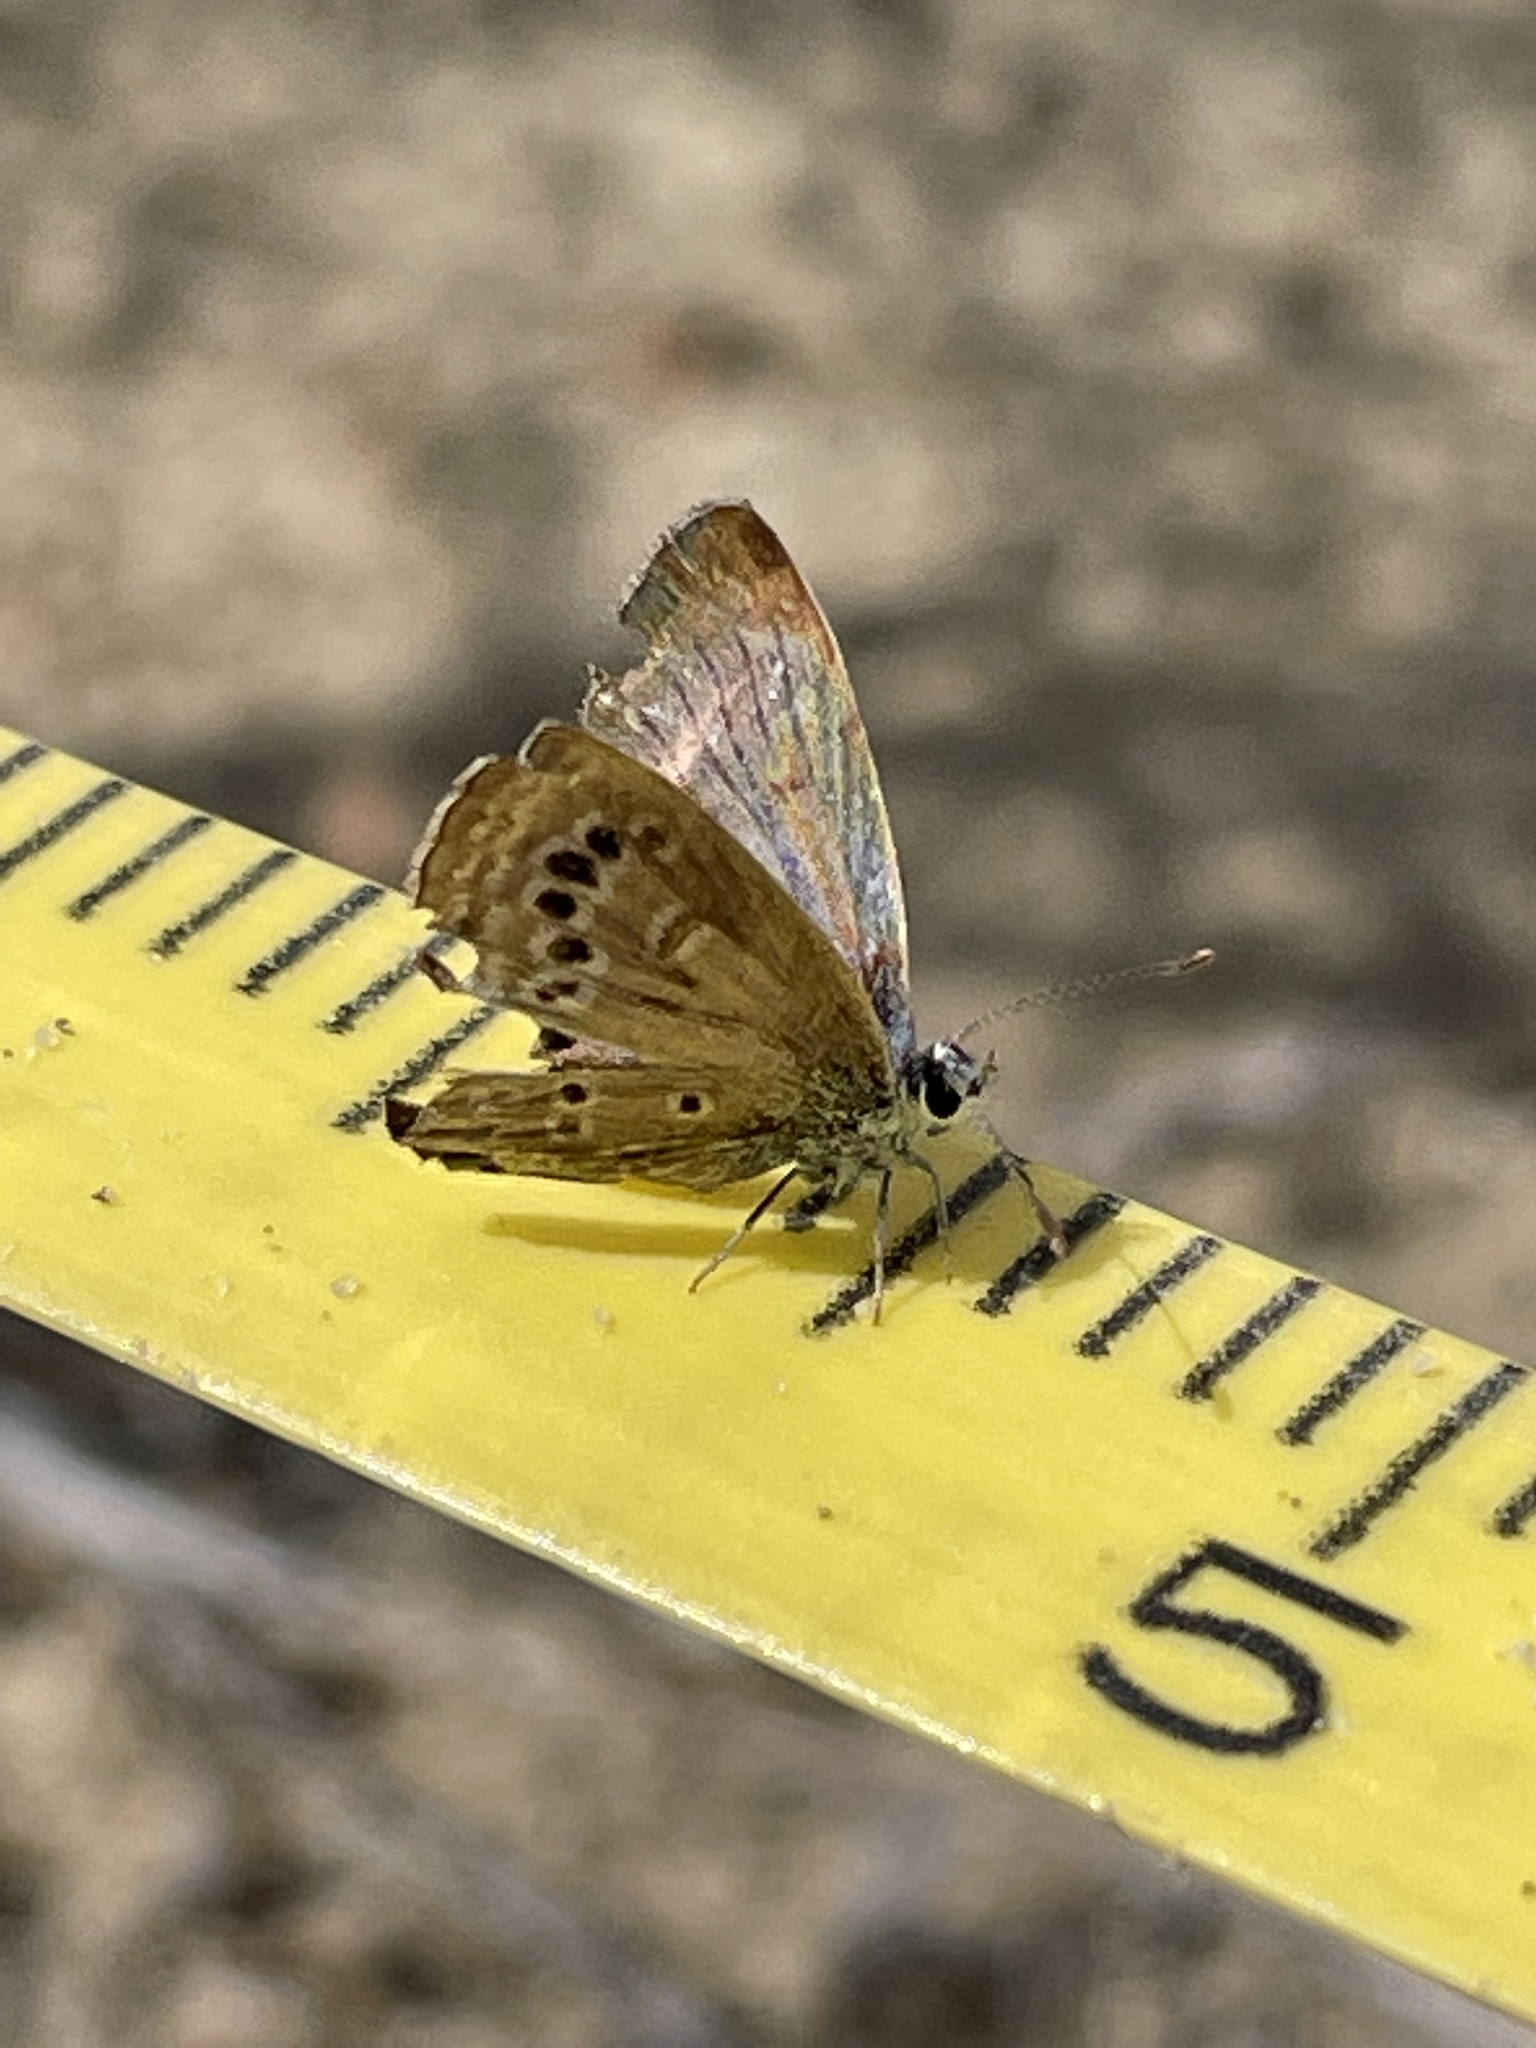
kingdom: Animalia
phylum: Arthropoda
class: Insecta
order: Lepidoptera
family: Lycaenidae
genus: Echinargus
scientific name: Echinargus isola
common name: Reakirt's blue
